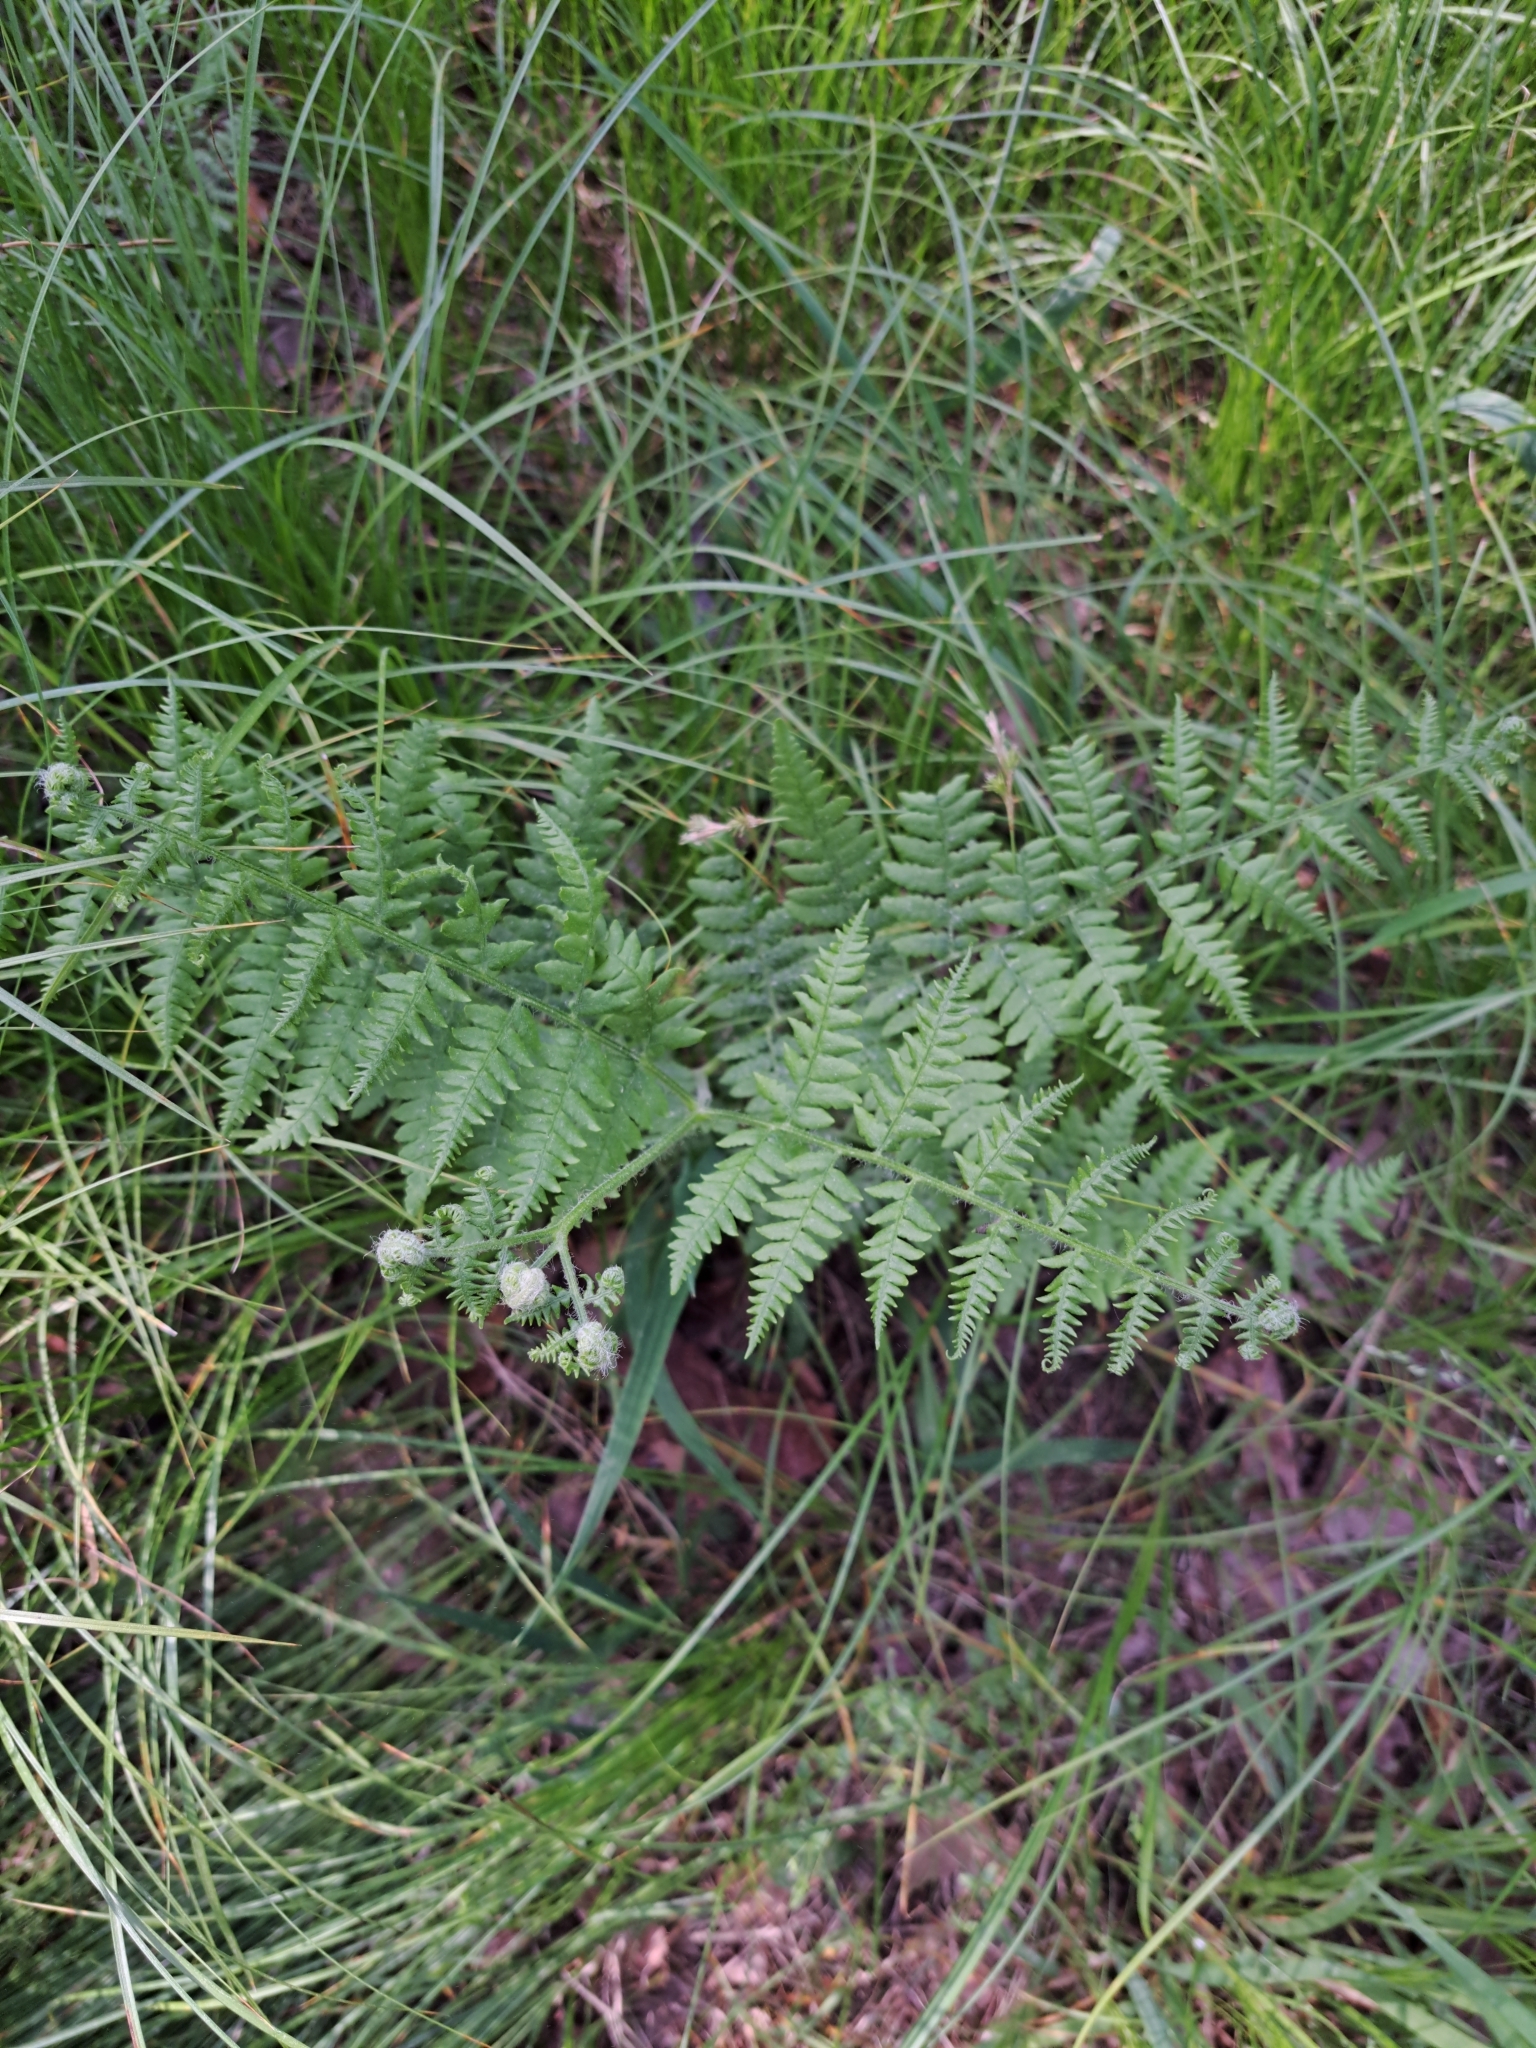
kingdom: Plantae
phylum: Tracheophyta
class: Polypodiopsida
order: Polypodiales
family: Dennstaedtiaceae
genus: Pteridium
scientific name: Pteridium aquilinum
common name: Bracken
